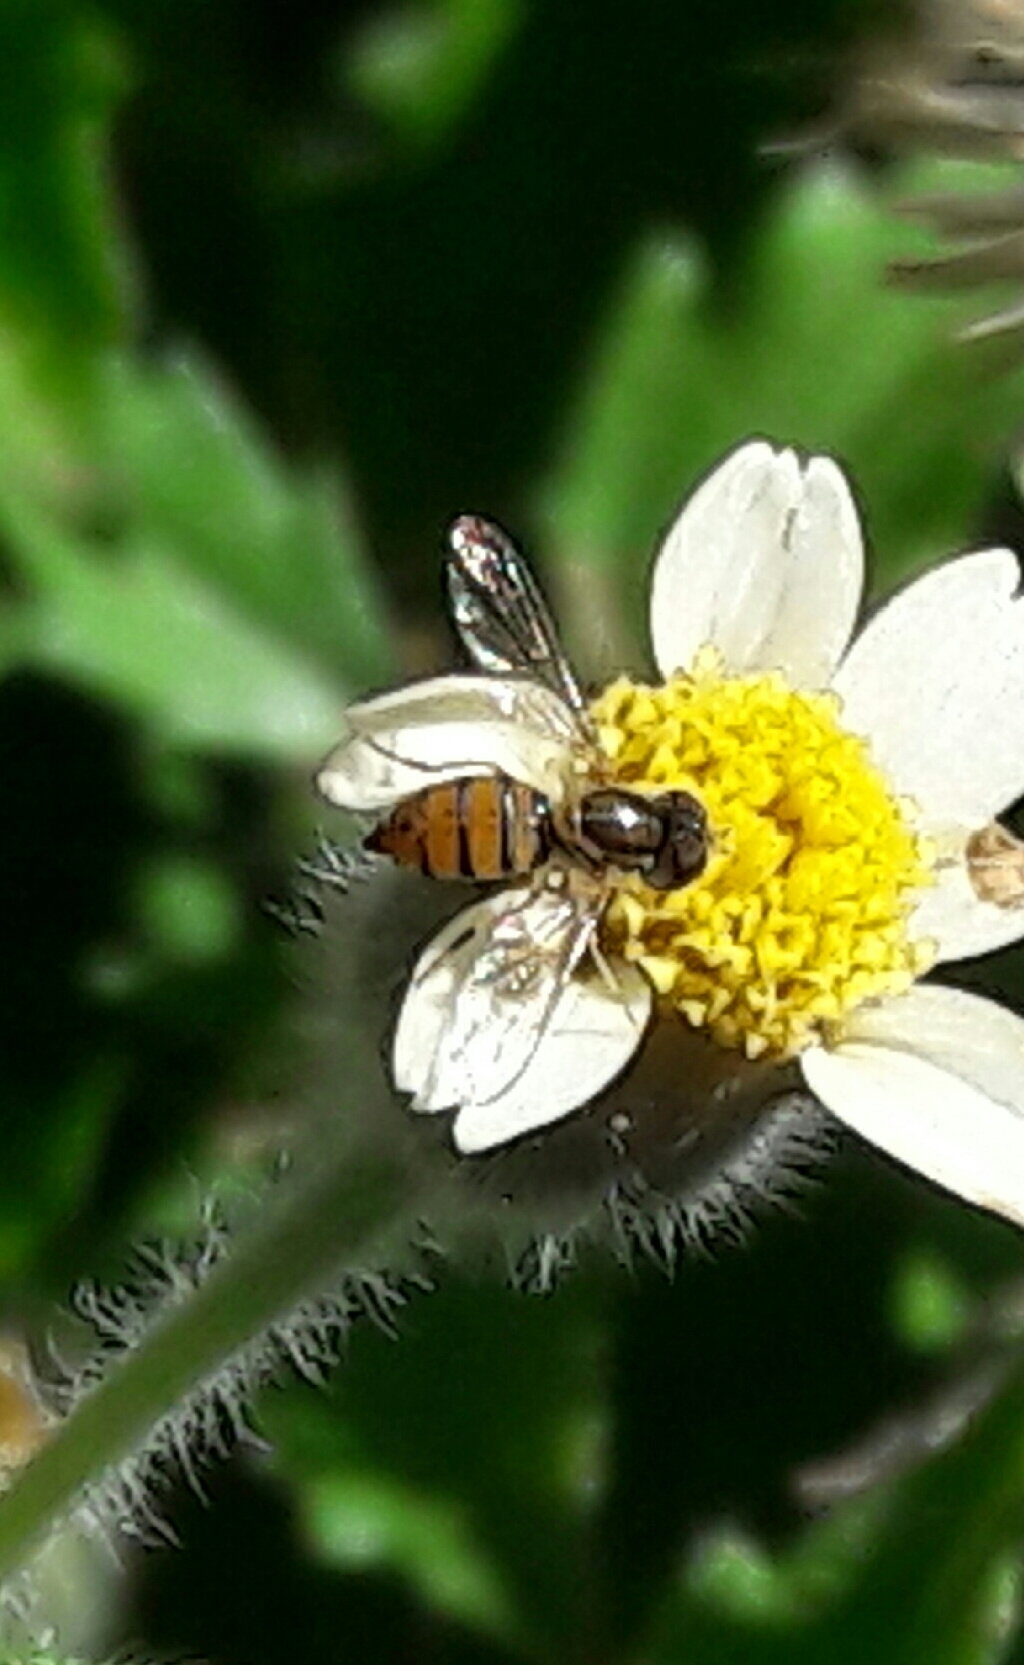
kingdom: Animalia
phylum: Arthropoda
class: Insecta
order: Diptera
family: Syrphidae
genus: Toxomerus
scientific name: Toxomerus
